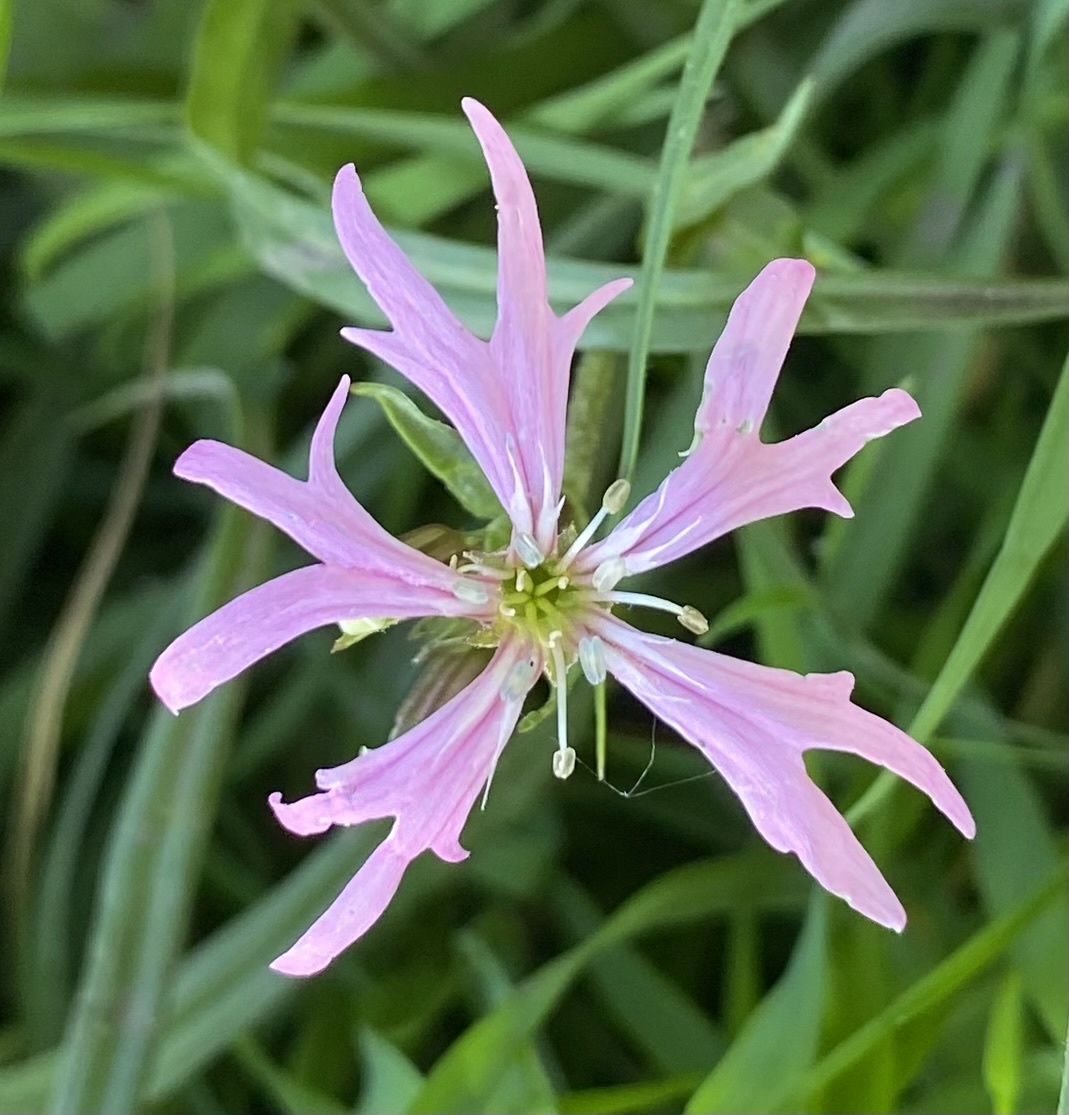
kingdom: Plantae
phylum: Tracheophyta
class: Magnoliopsida
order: Caryophyllales
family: Caryophyllaceae
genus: Silene
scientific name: Silene flos-cuculi
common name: Ragged-robin
